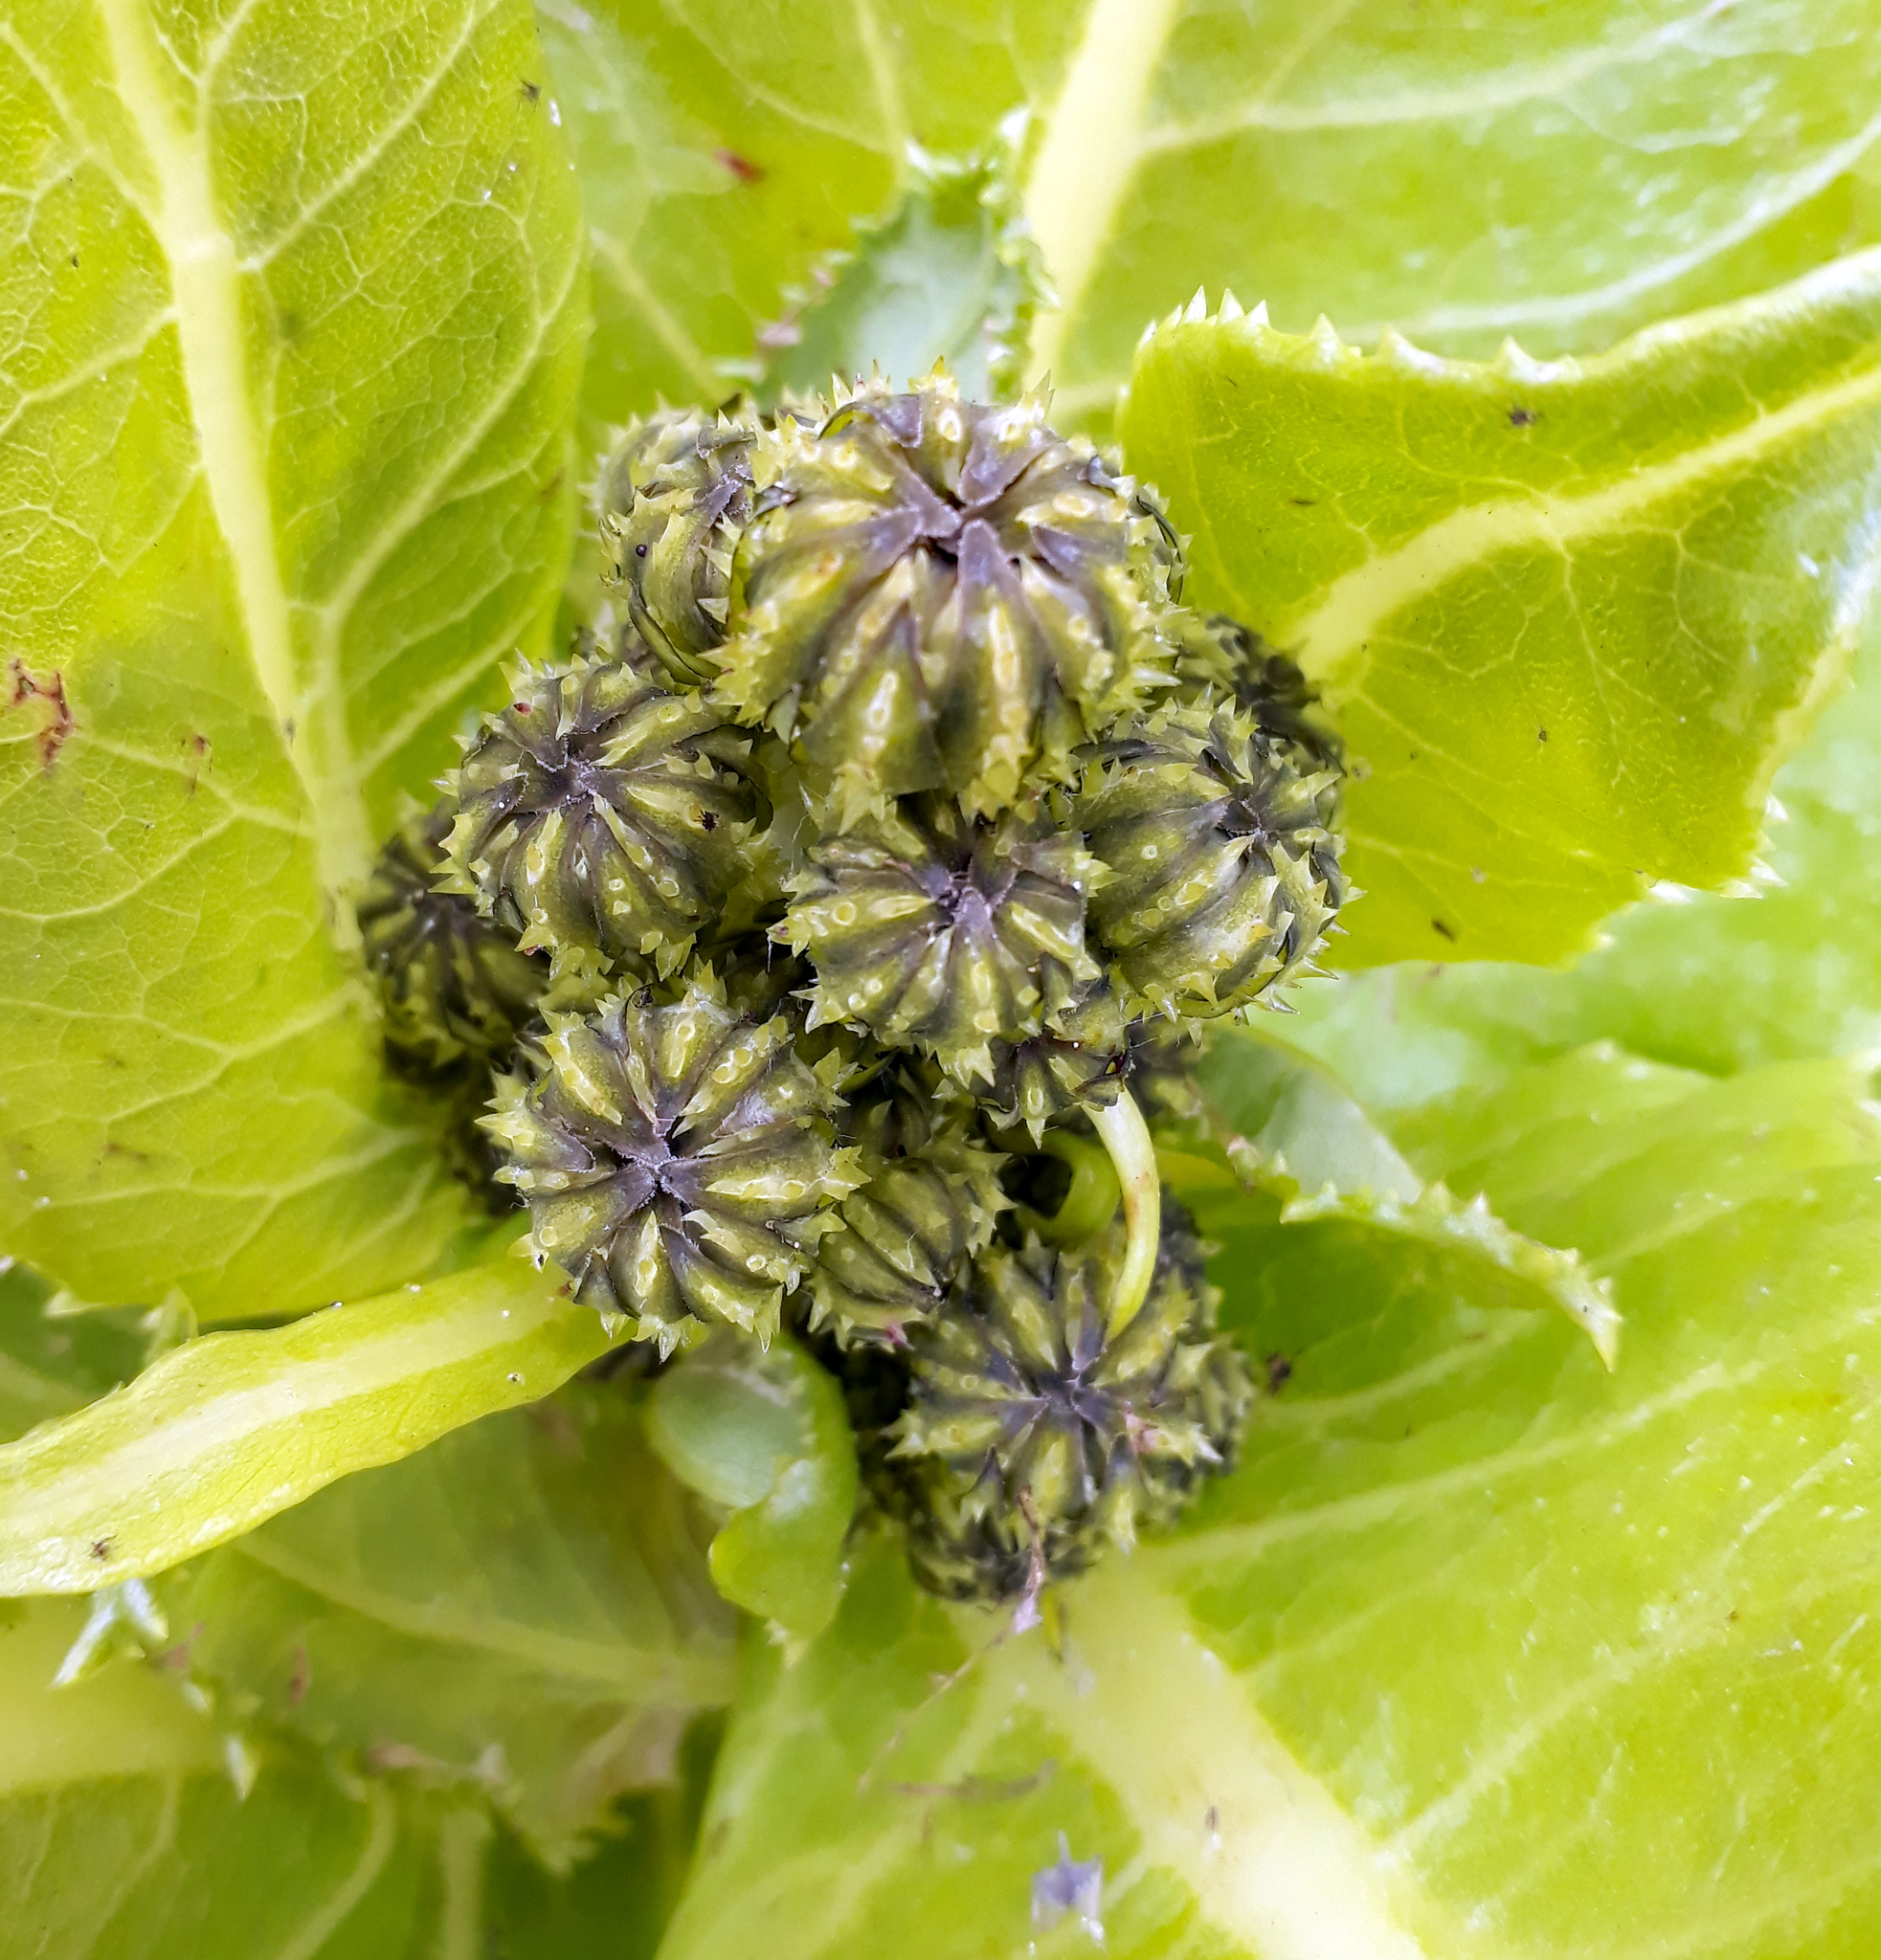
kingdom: Plantae
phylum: Tracheophyta
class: Magnoliopsida
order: Asterales
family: Asteraceae
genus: Sonchus
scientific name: Sonchus grandifolius
